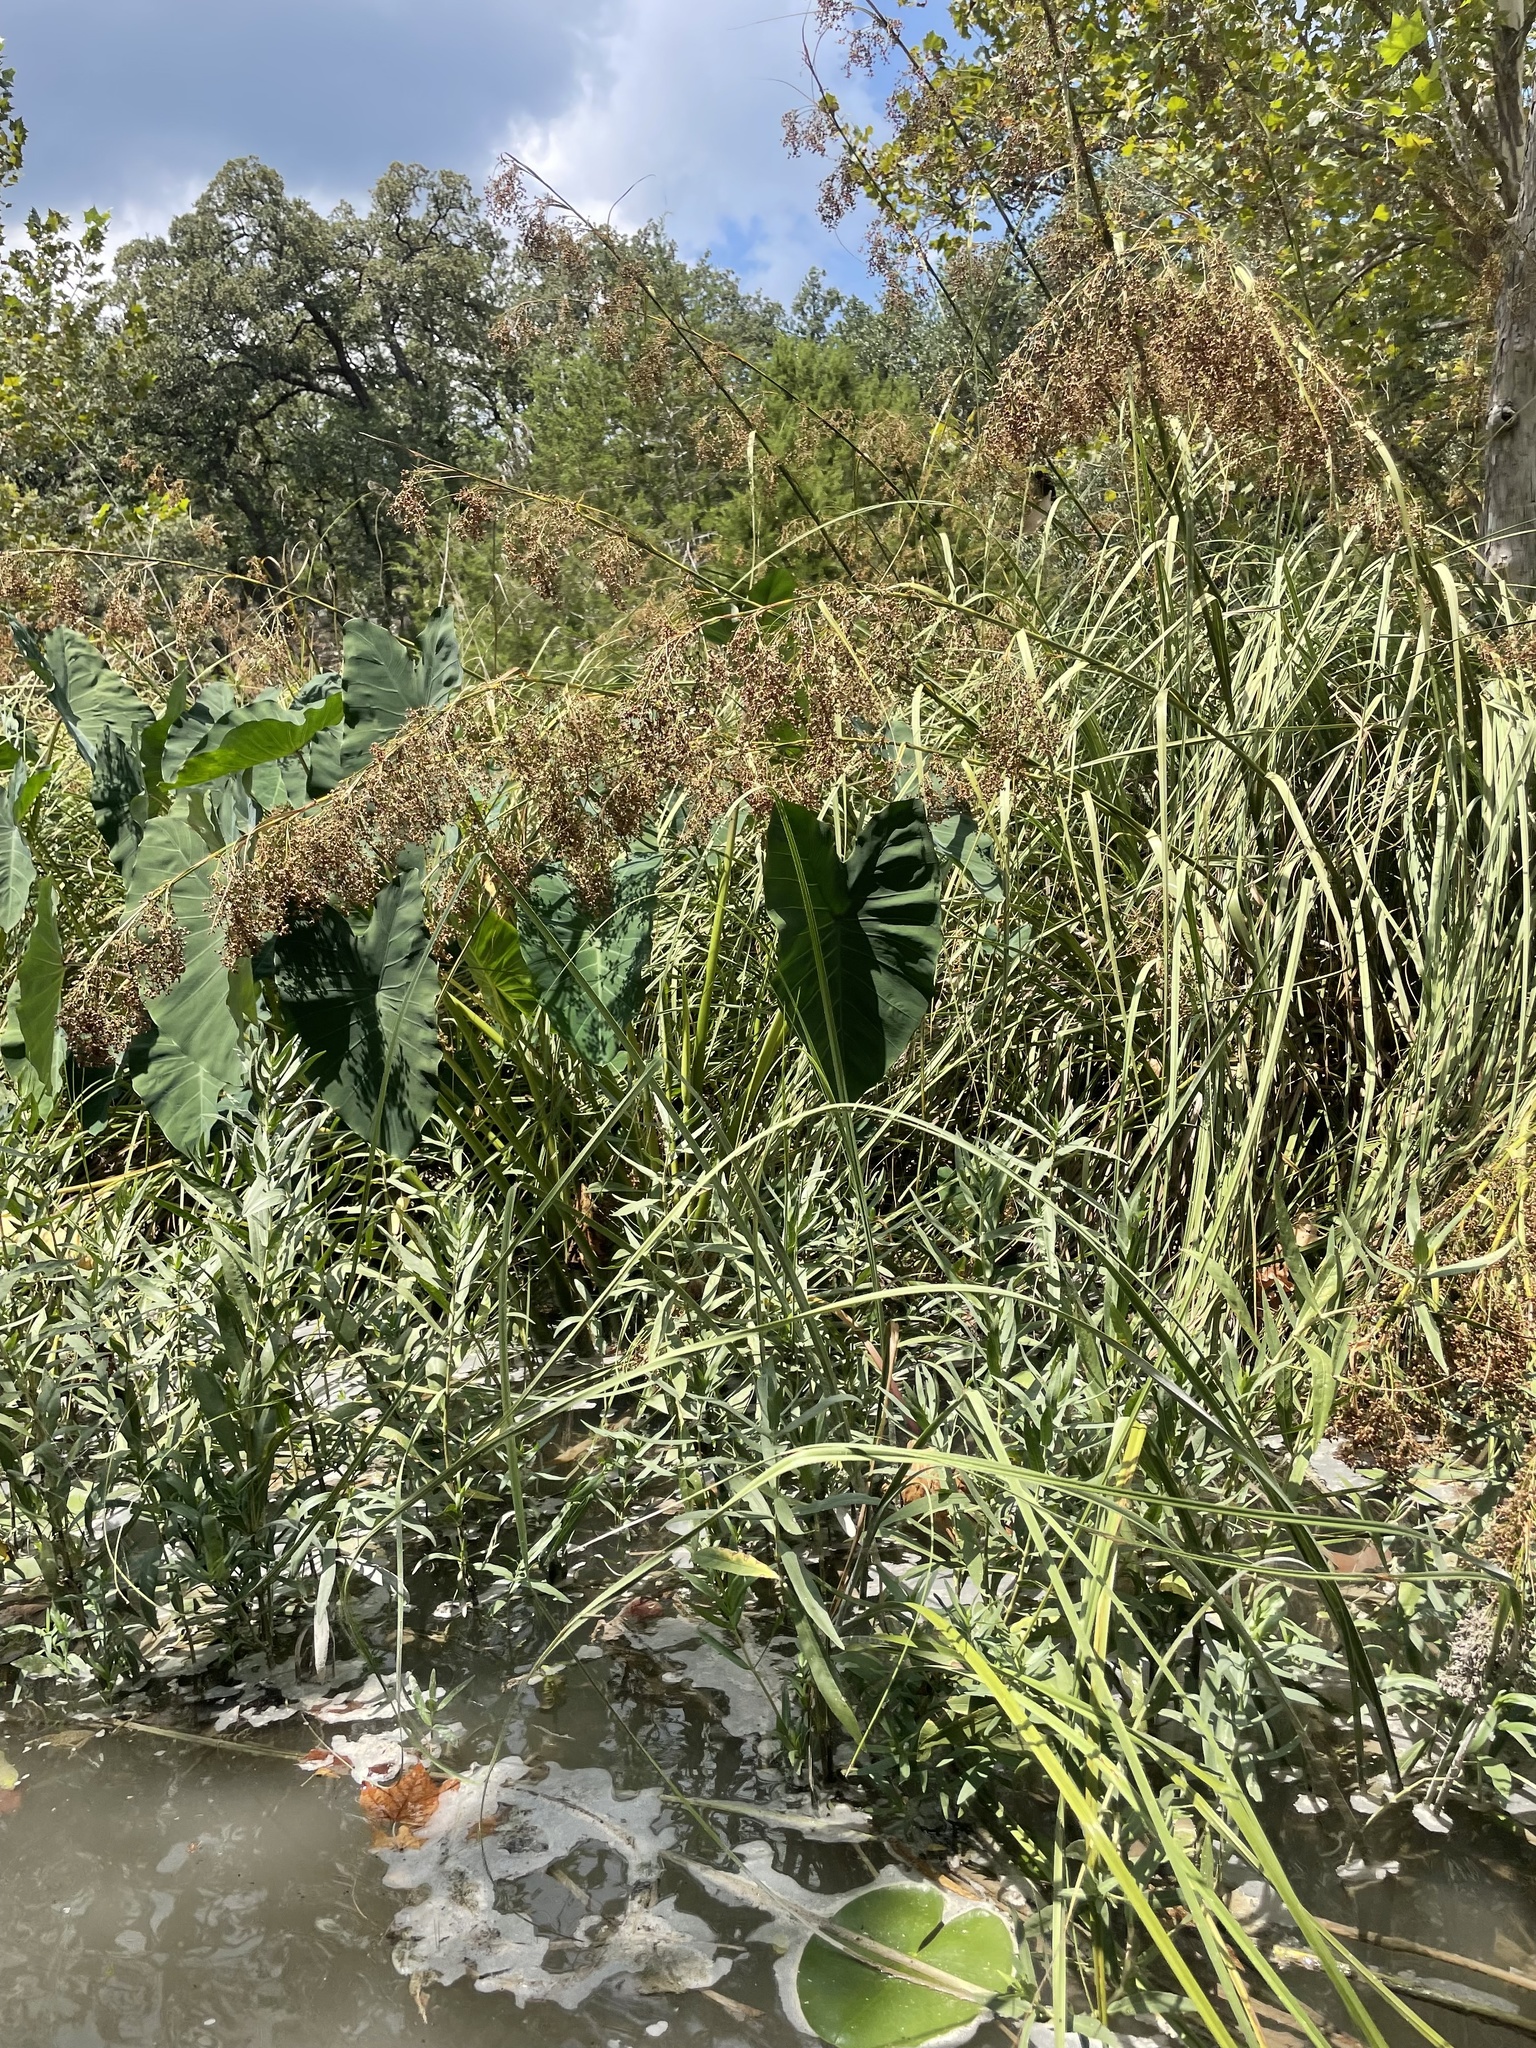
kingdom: Plantae
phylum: Tracheophyta
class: Liliopsida
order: Alismatales
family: Araceae
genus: Colocasia
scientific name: Colocasia esculenta
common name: Taro
